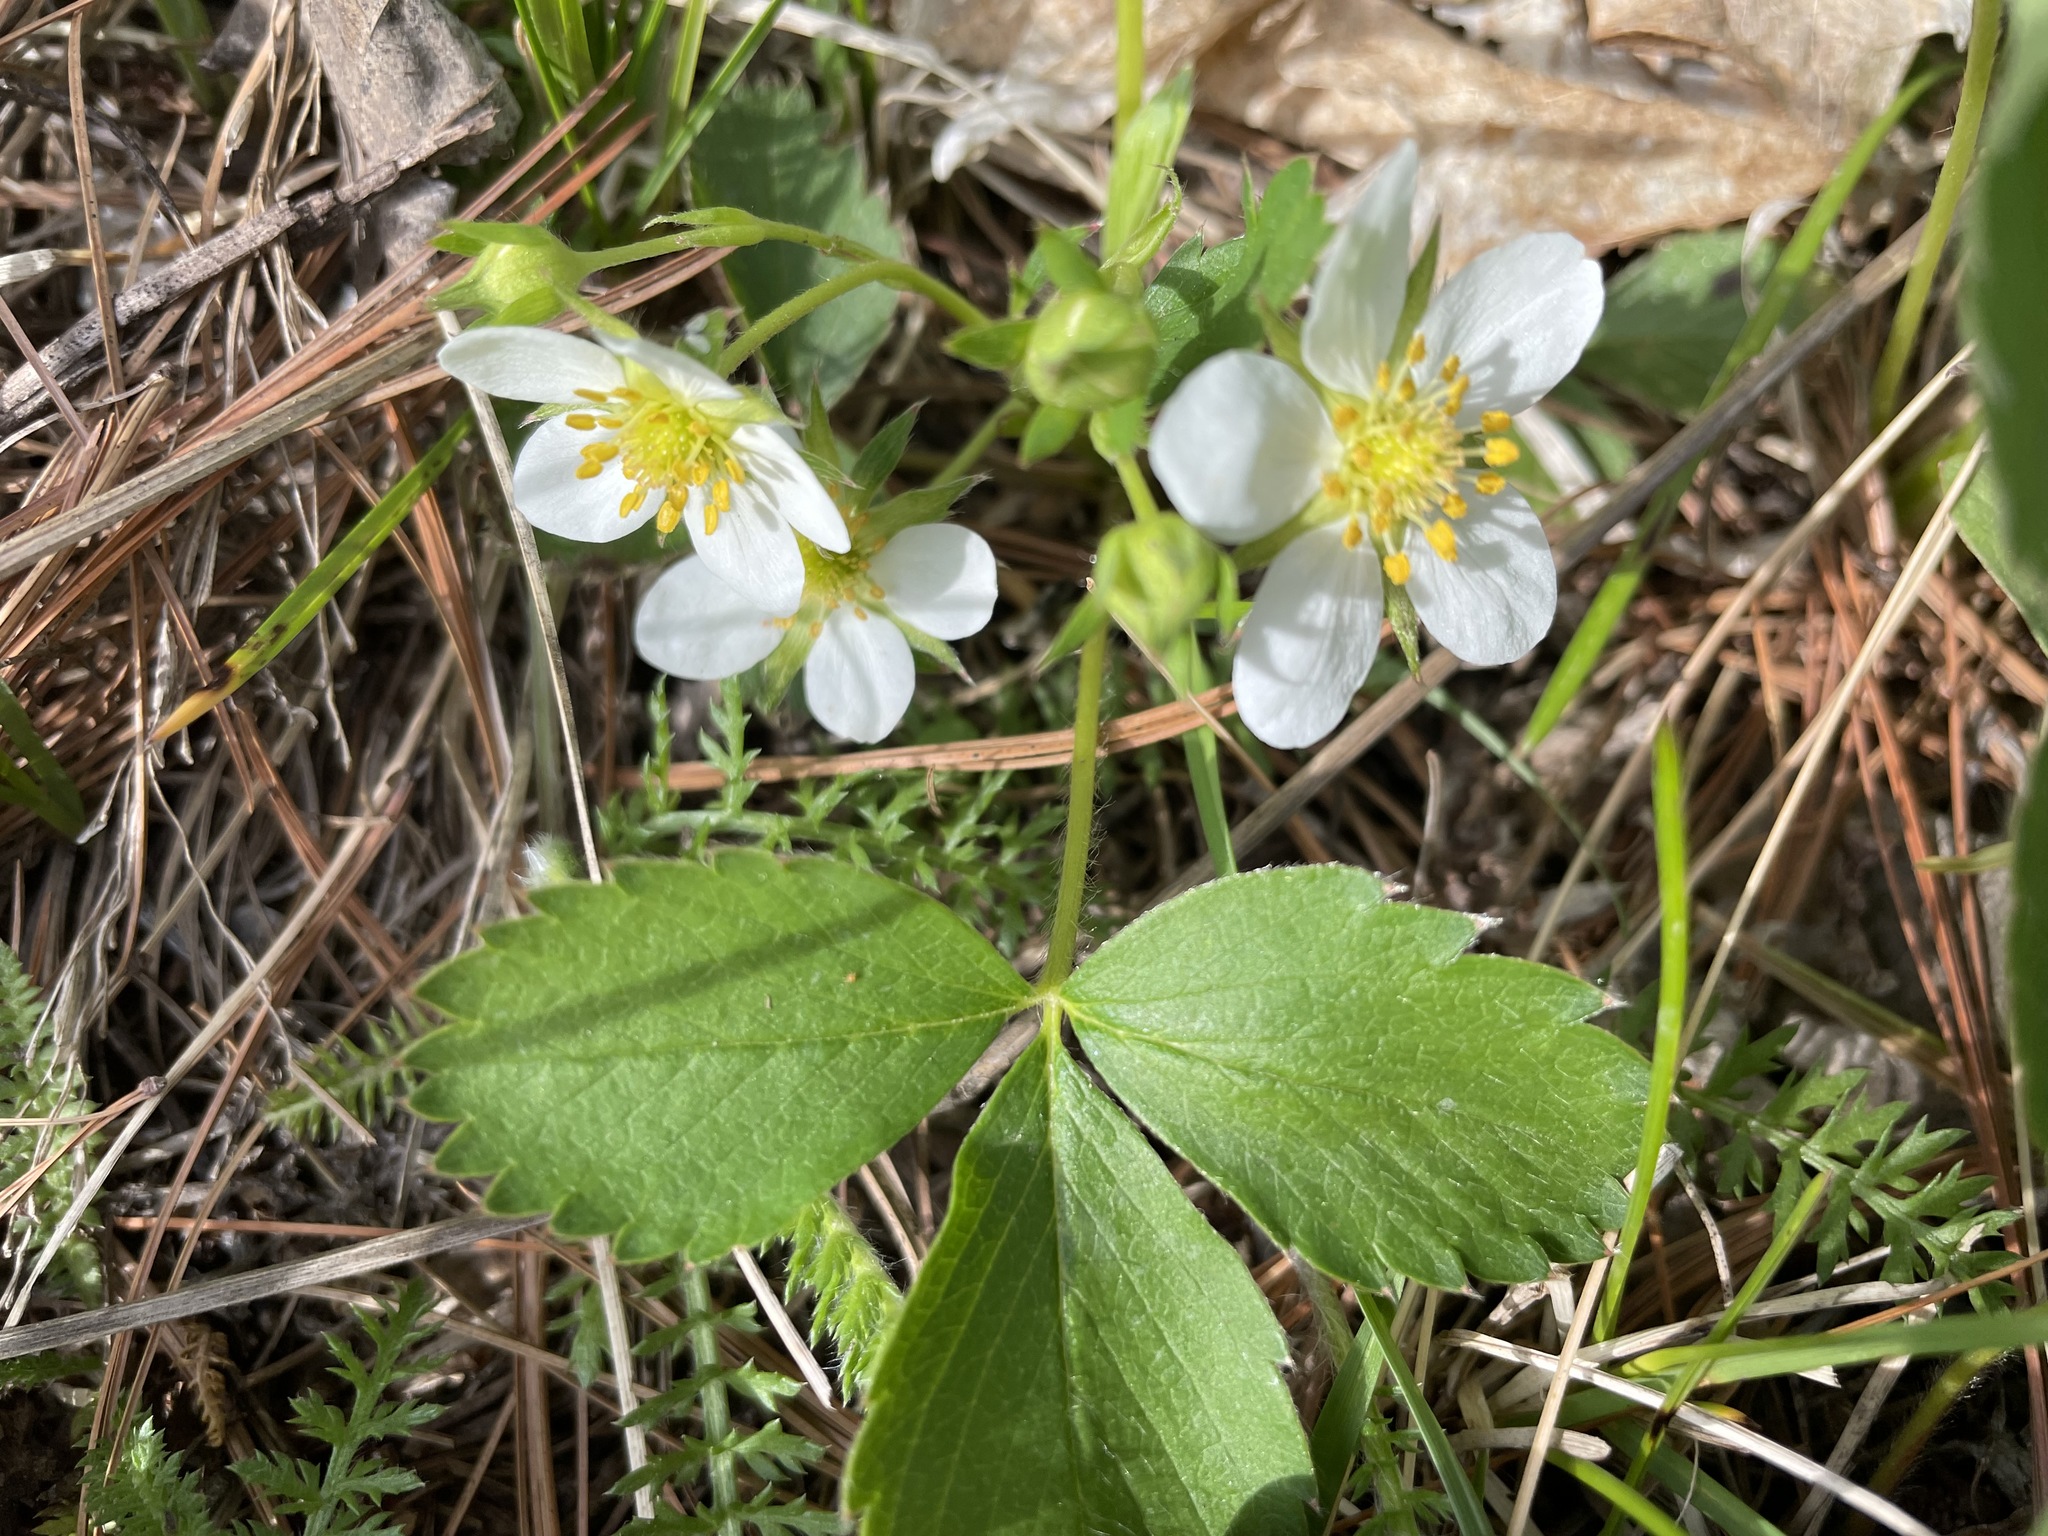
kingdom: Plantae
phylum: Tracheophyta
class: Magnoliopsida
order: Rosales
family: Rosaceae
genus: Fragaria
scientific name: Fragaria virginiana
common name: Thickleaved wild strawberry
